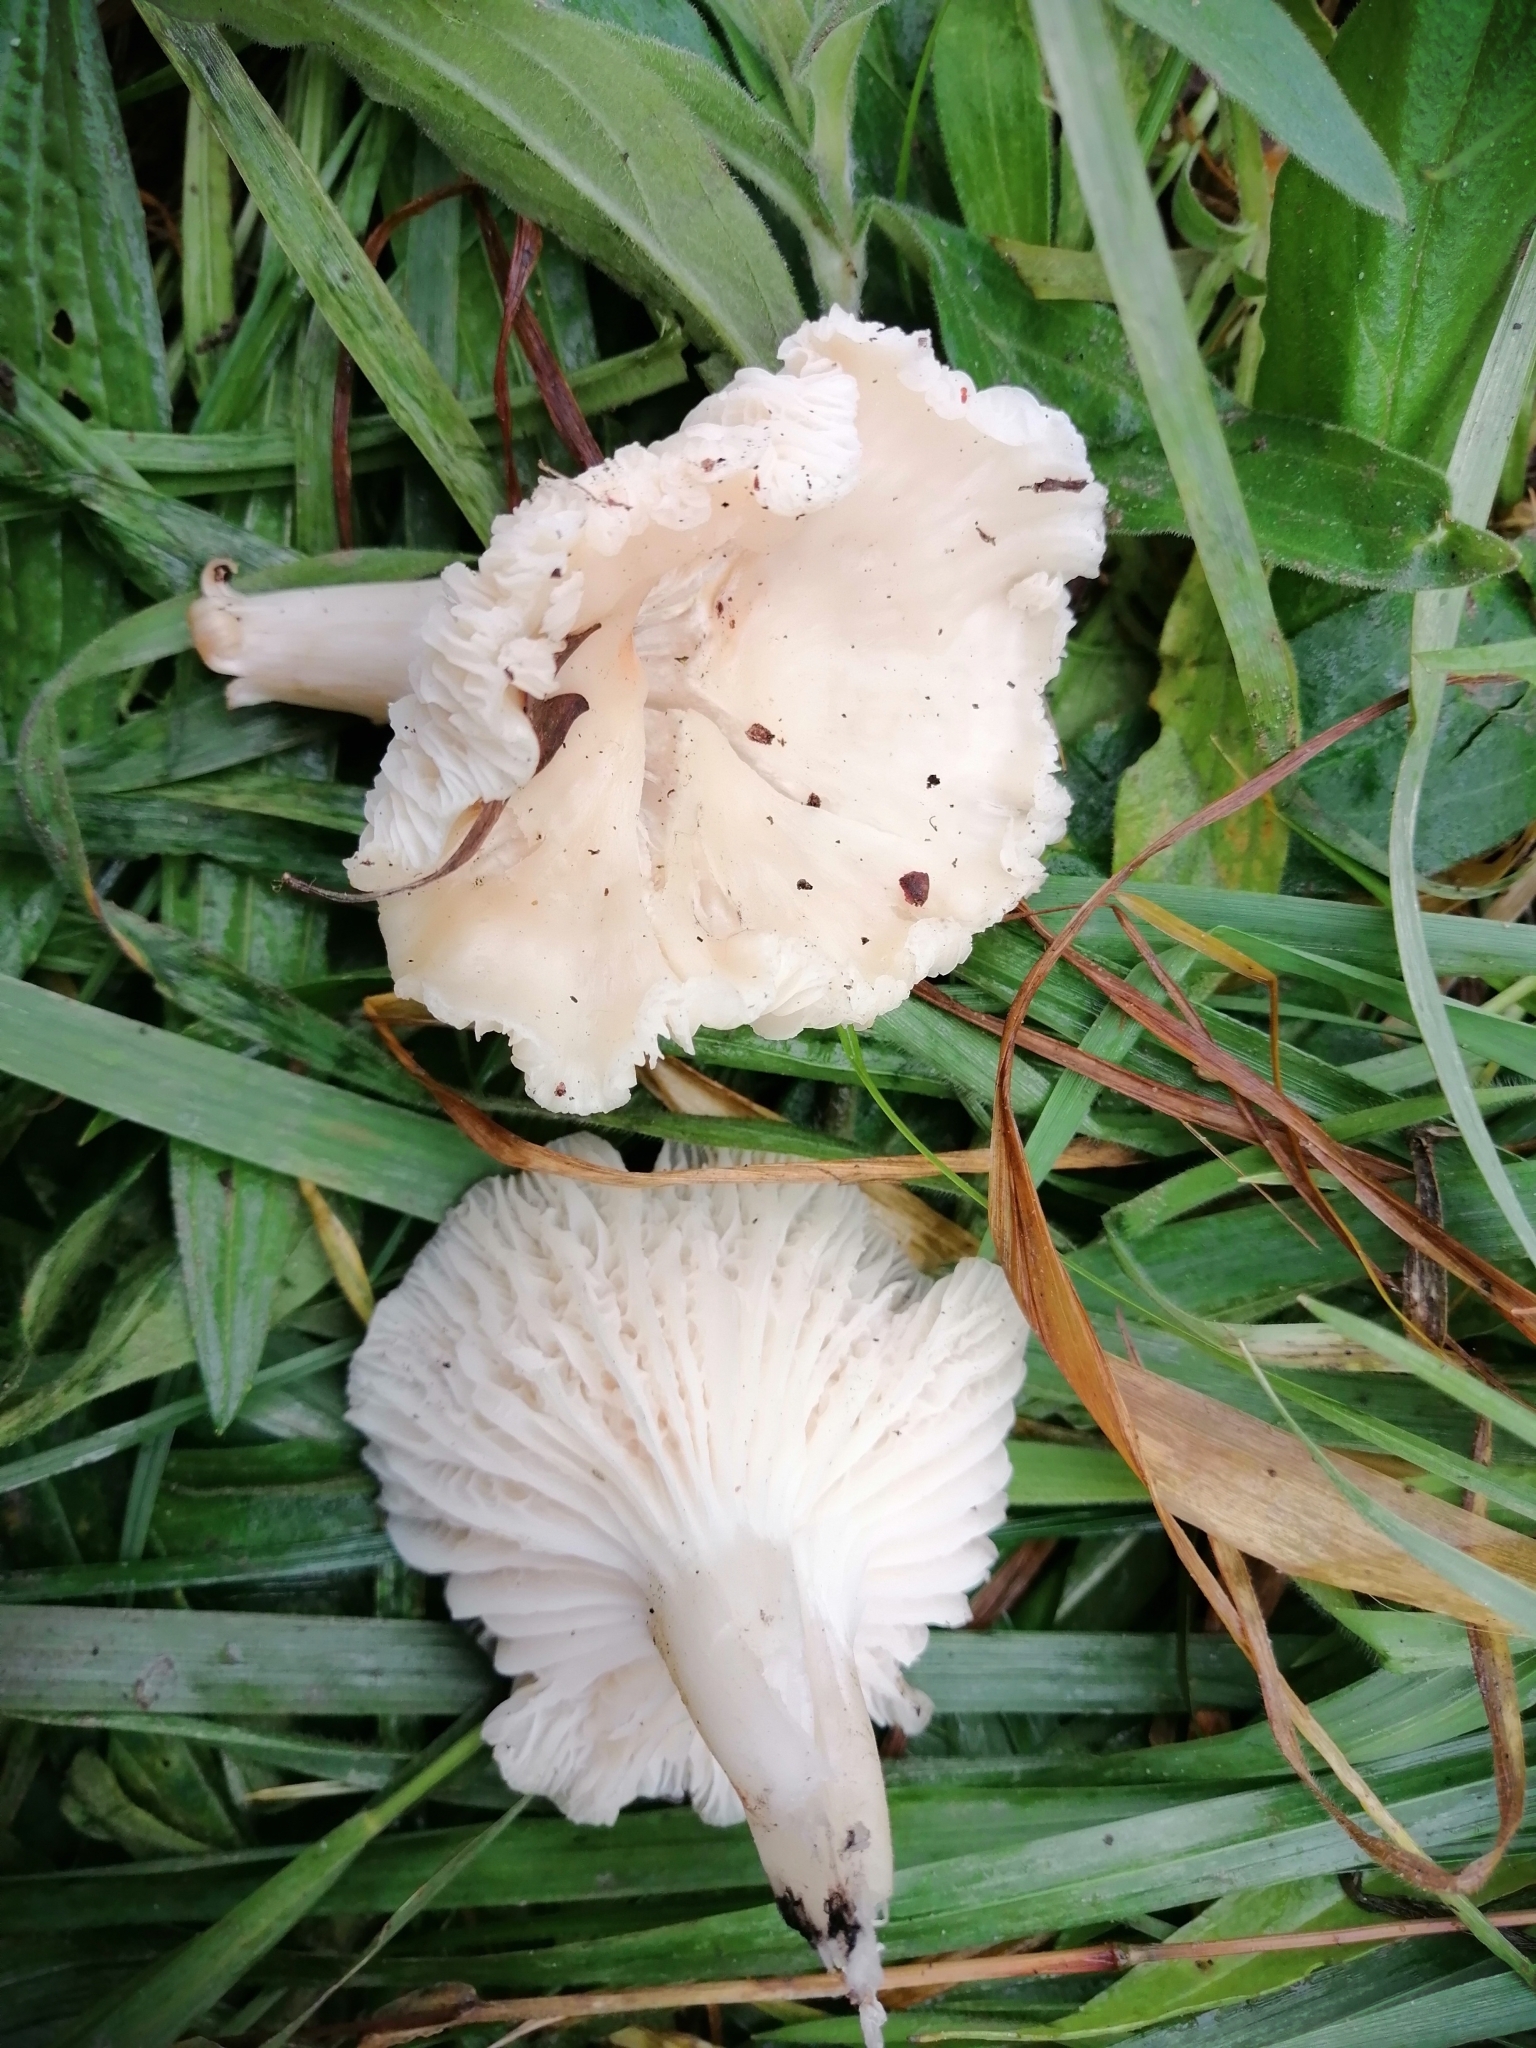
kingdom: Fungi
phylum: Basidiomycota
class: Agaricomycetes
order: Agaricales
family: Hygrophoraceae
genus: Cuphophyllus
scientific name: Cuphophyllus virgineus
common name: Snowy waxcap
